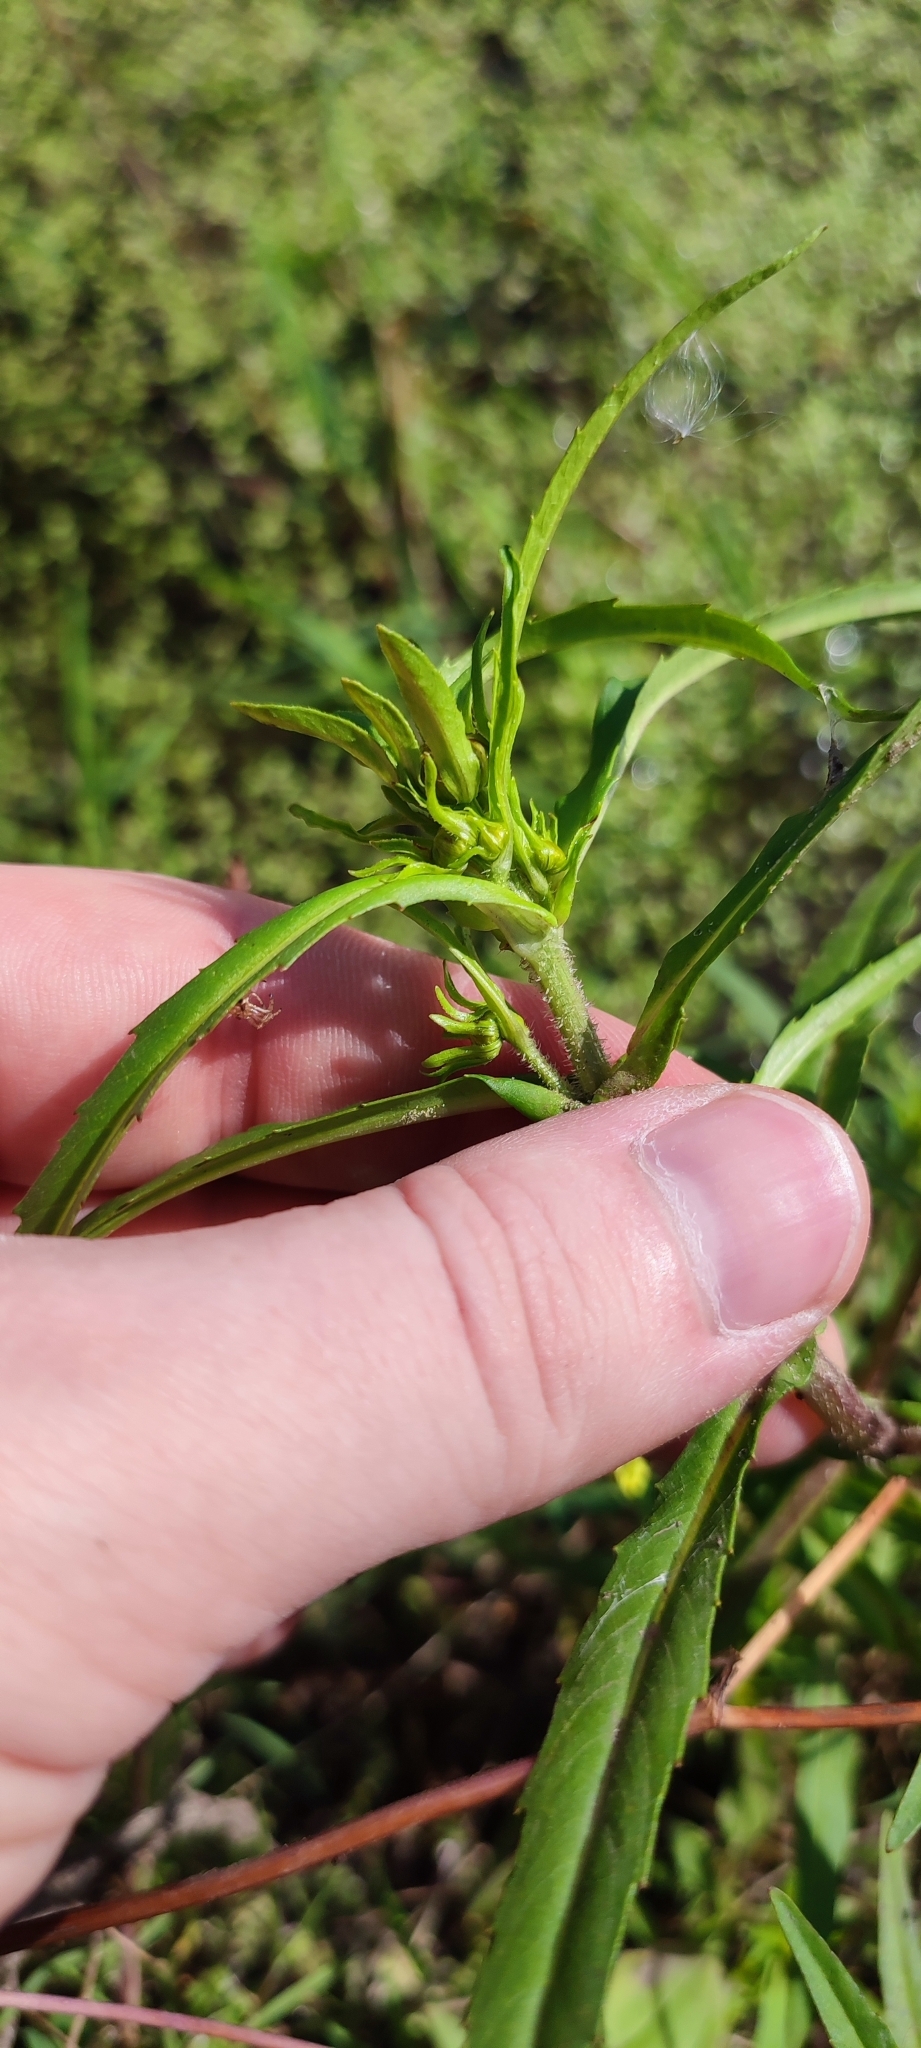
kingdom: Plantae
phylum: Tracheophyta
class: Magnoliopsida
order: Asterales
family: Asteraceae
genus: Bidens
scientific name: Bidens radiata
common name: Radiating bur-marigold
